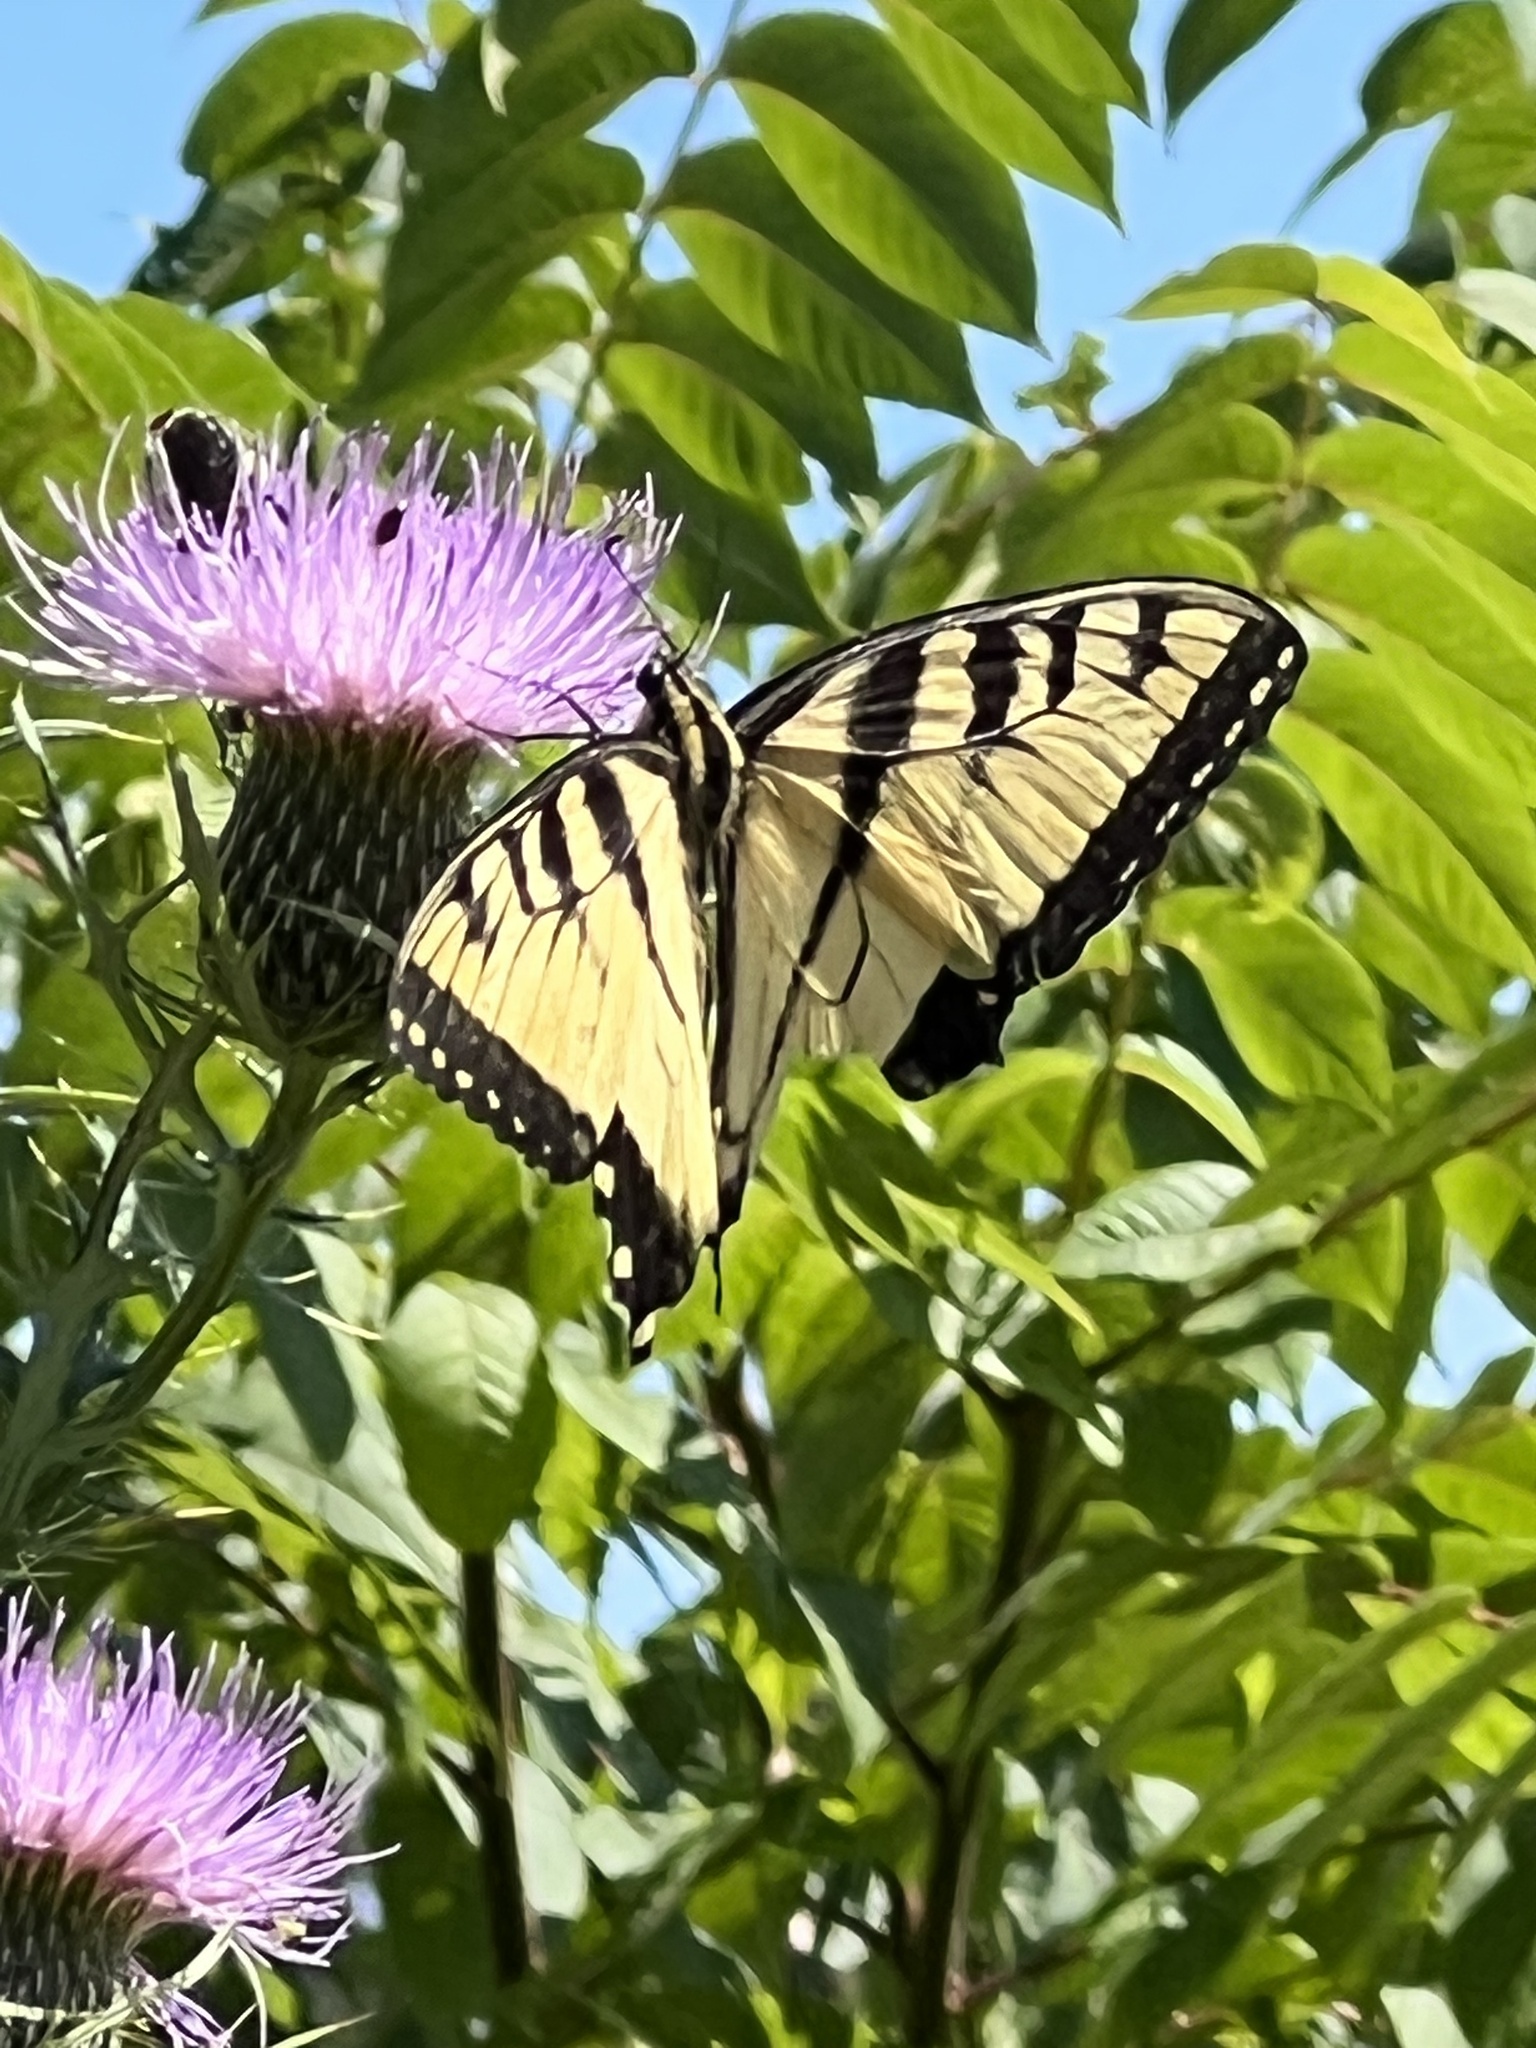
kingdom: Animalia
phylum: Arthropoda
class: Insecta
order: Lepidoptera
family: Papilionidae
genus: Papilio
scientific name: Papilio glaucus
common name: Tiger swallowtail
